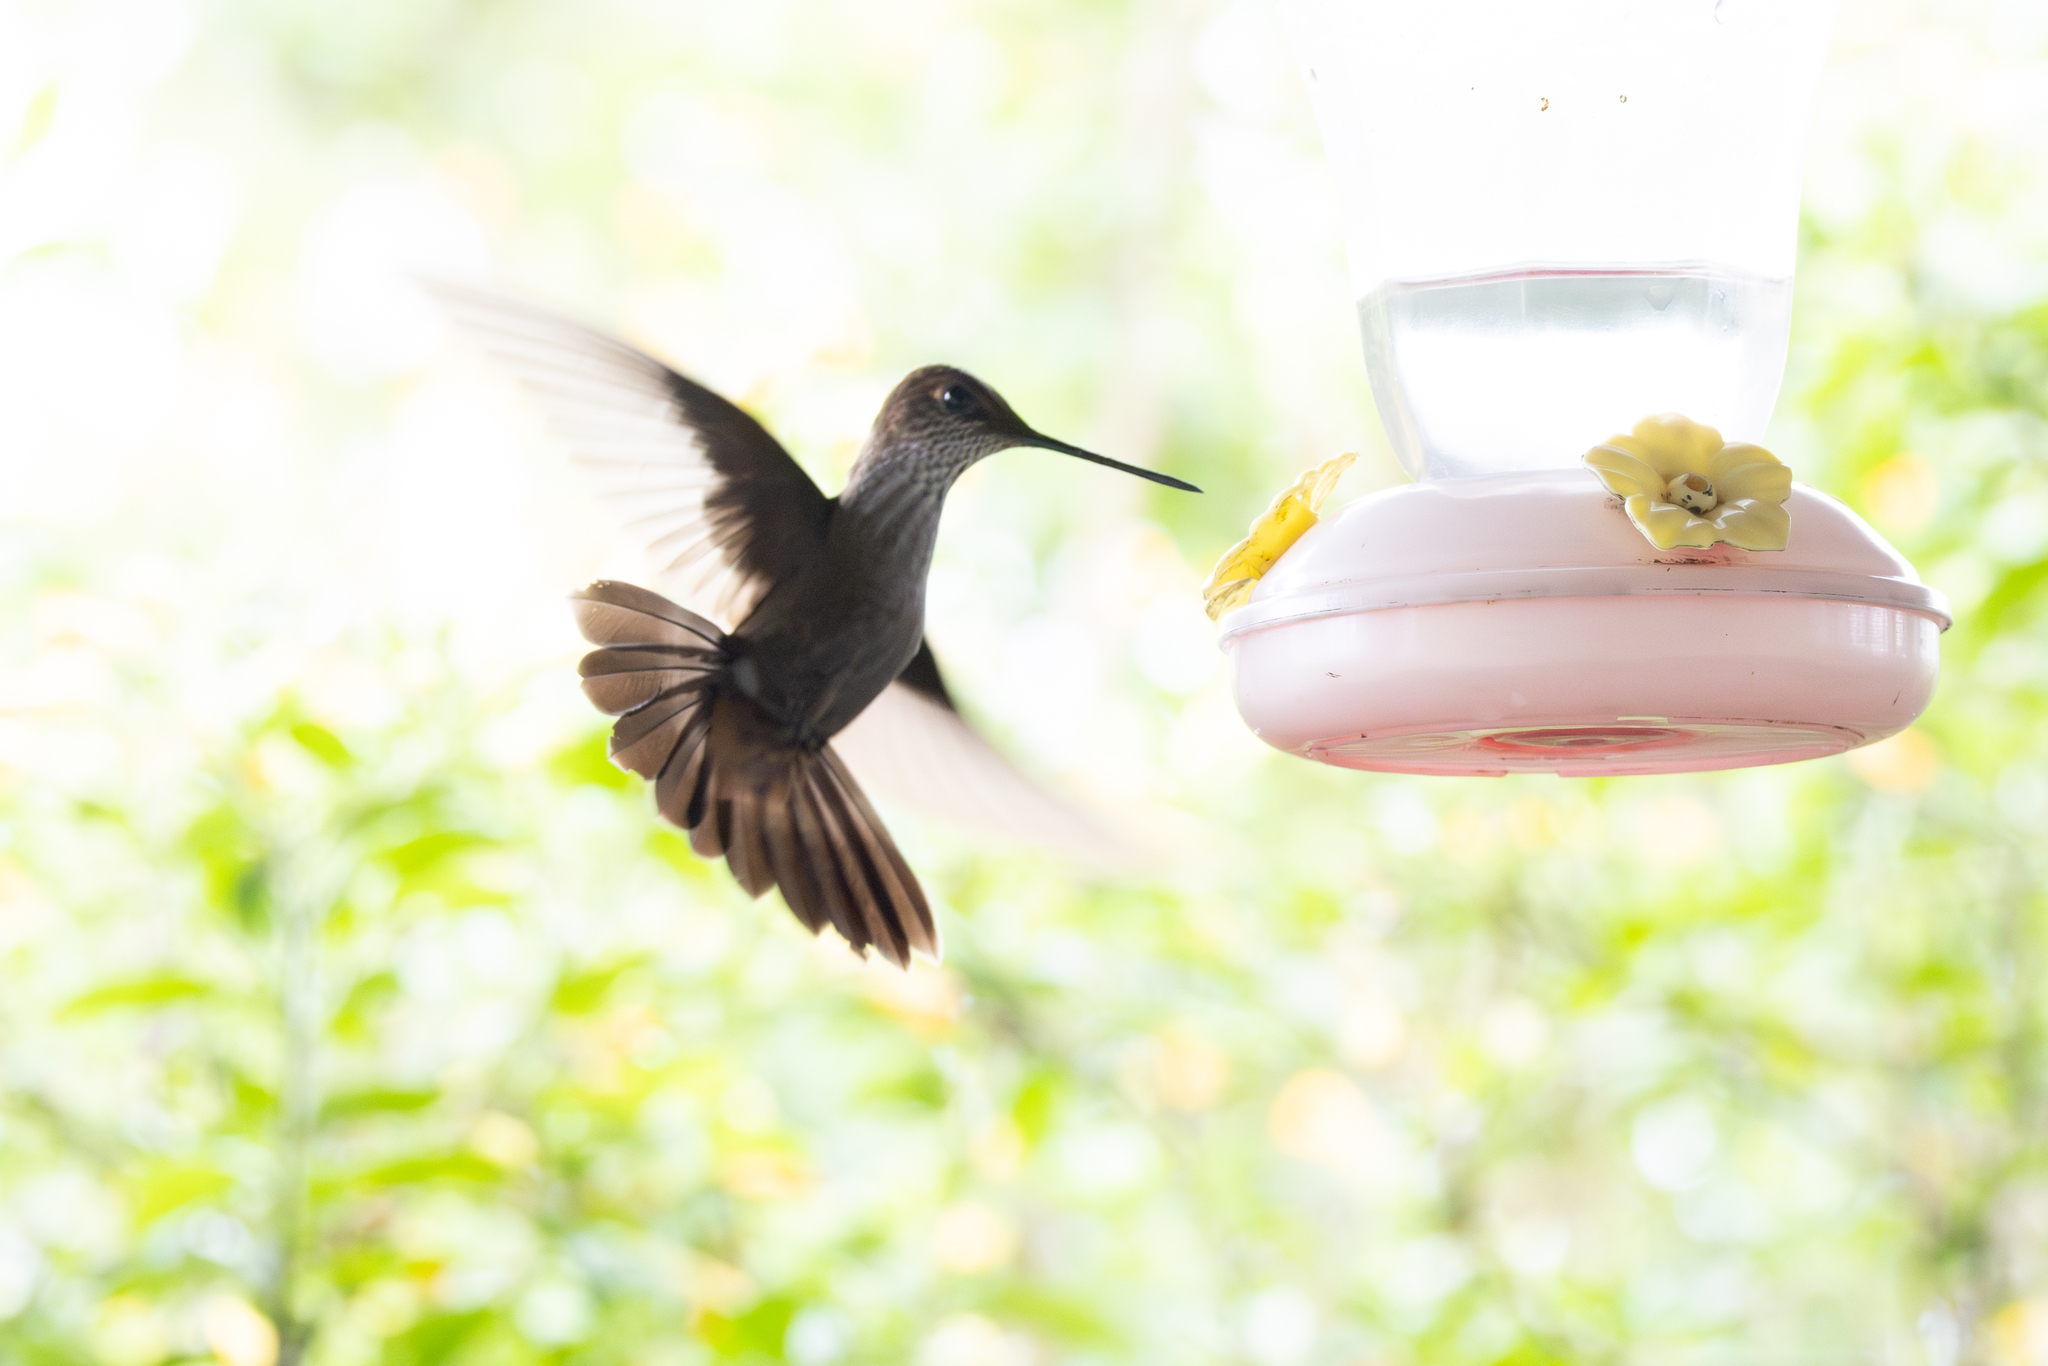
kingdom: Animalia
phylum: Chordata
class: Aves
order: Apodiformes
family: Trochilidae
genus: Coeligena
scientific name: Coeligena coeligena
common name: Bronzy inca
